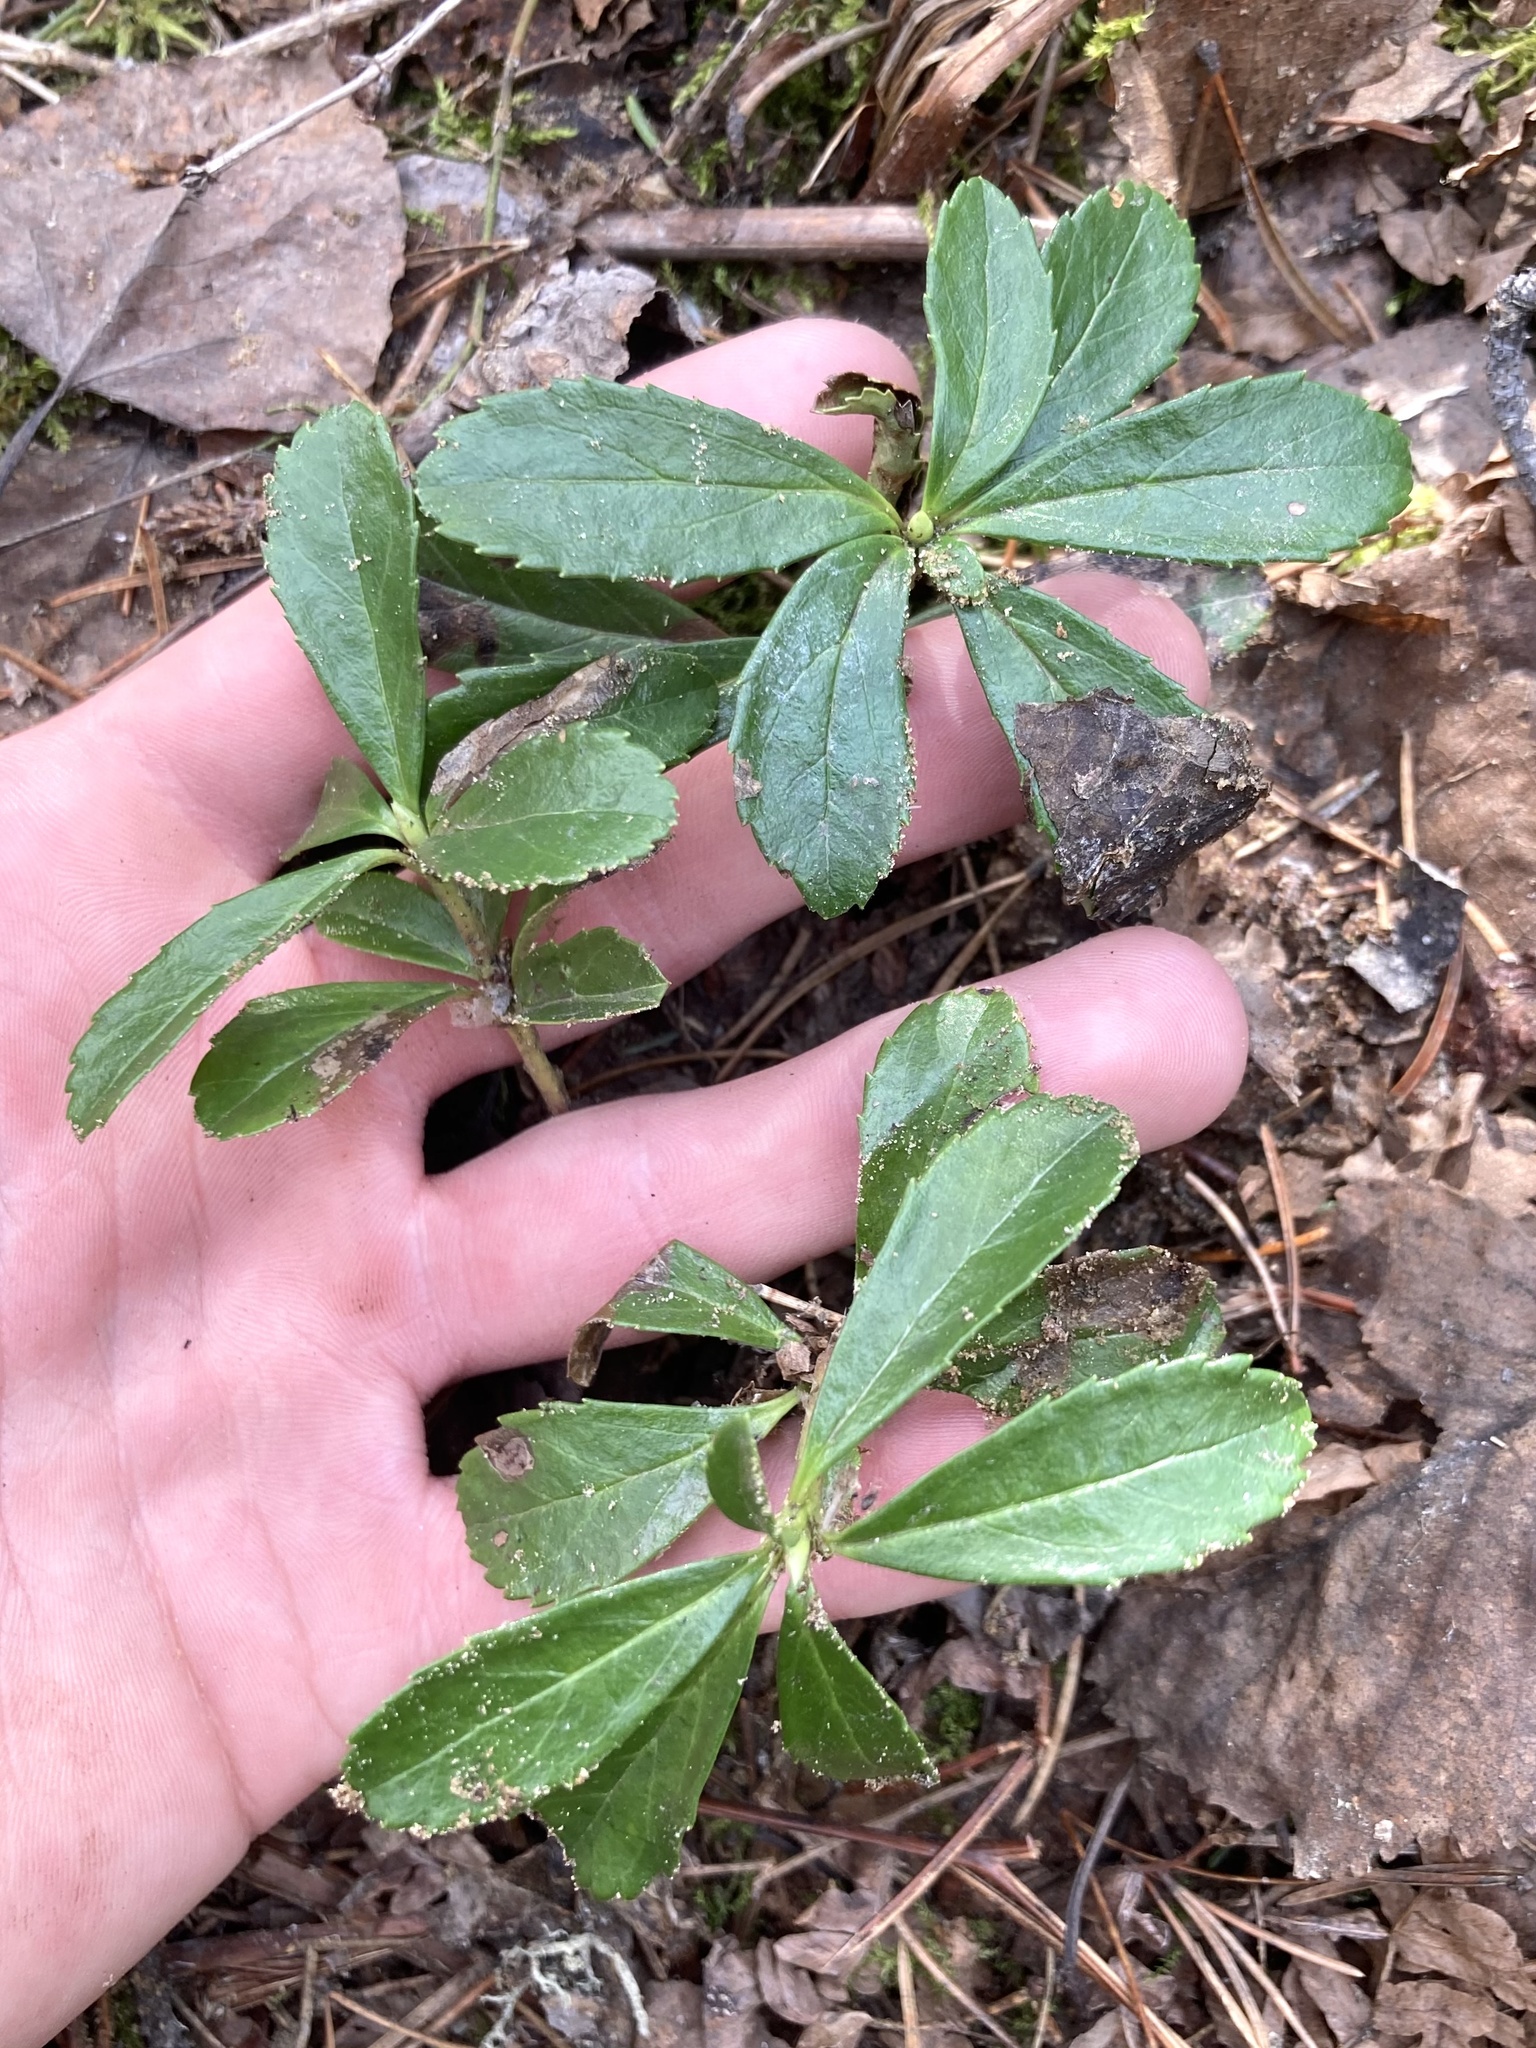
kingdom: Plantae
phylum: Tracheophyta
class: Magnoliopsida
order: Ericales
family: Ericaceae
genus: Chimaphila
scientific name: Chimaphila umbellata
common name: Pipsissewa
